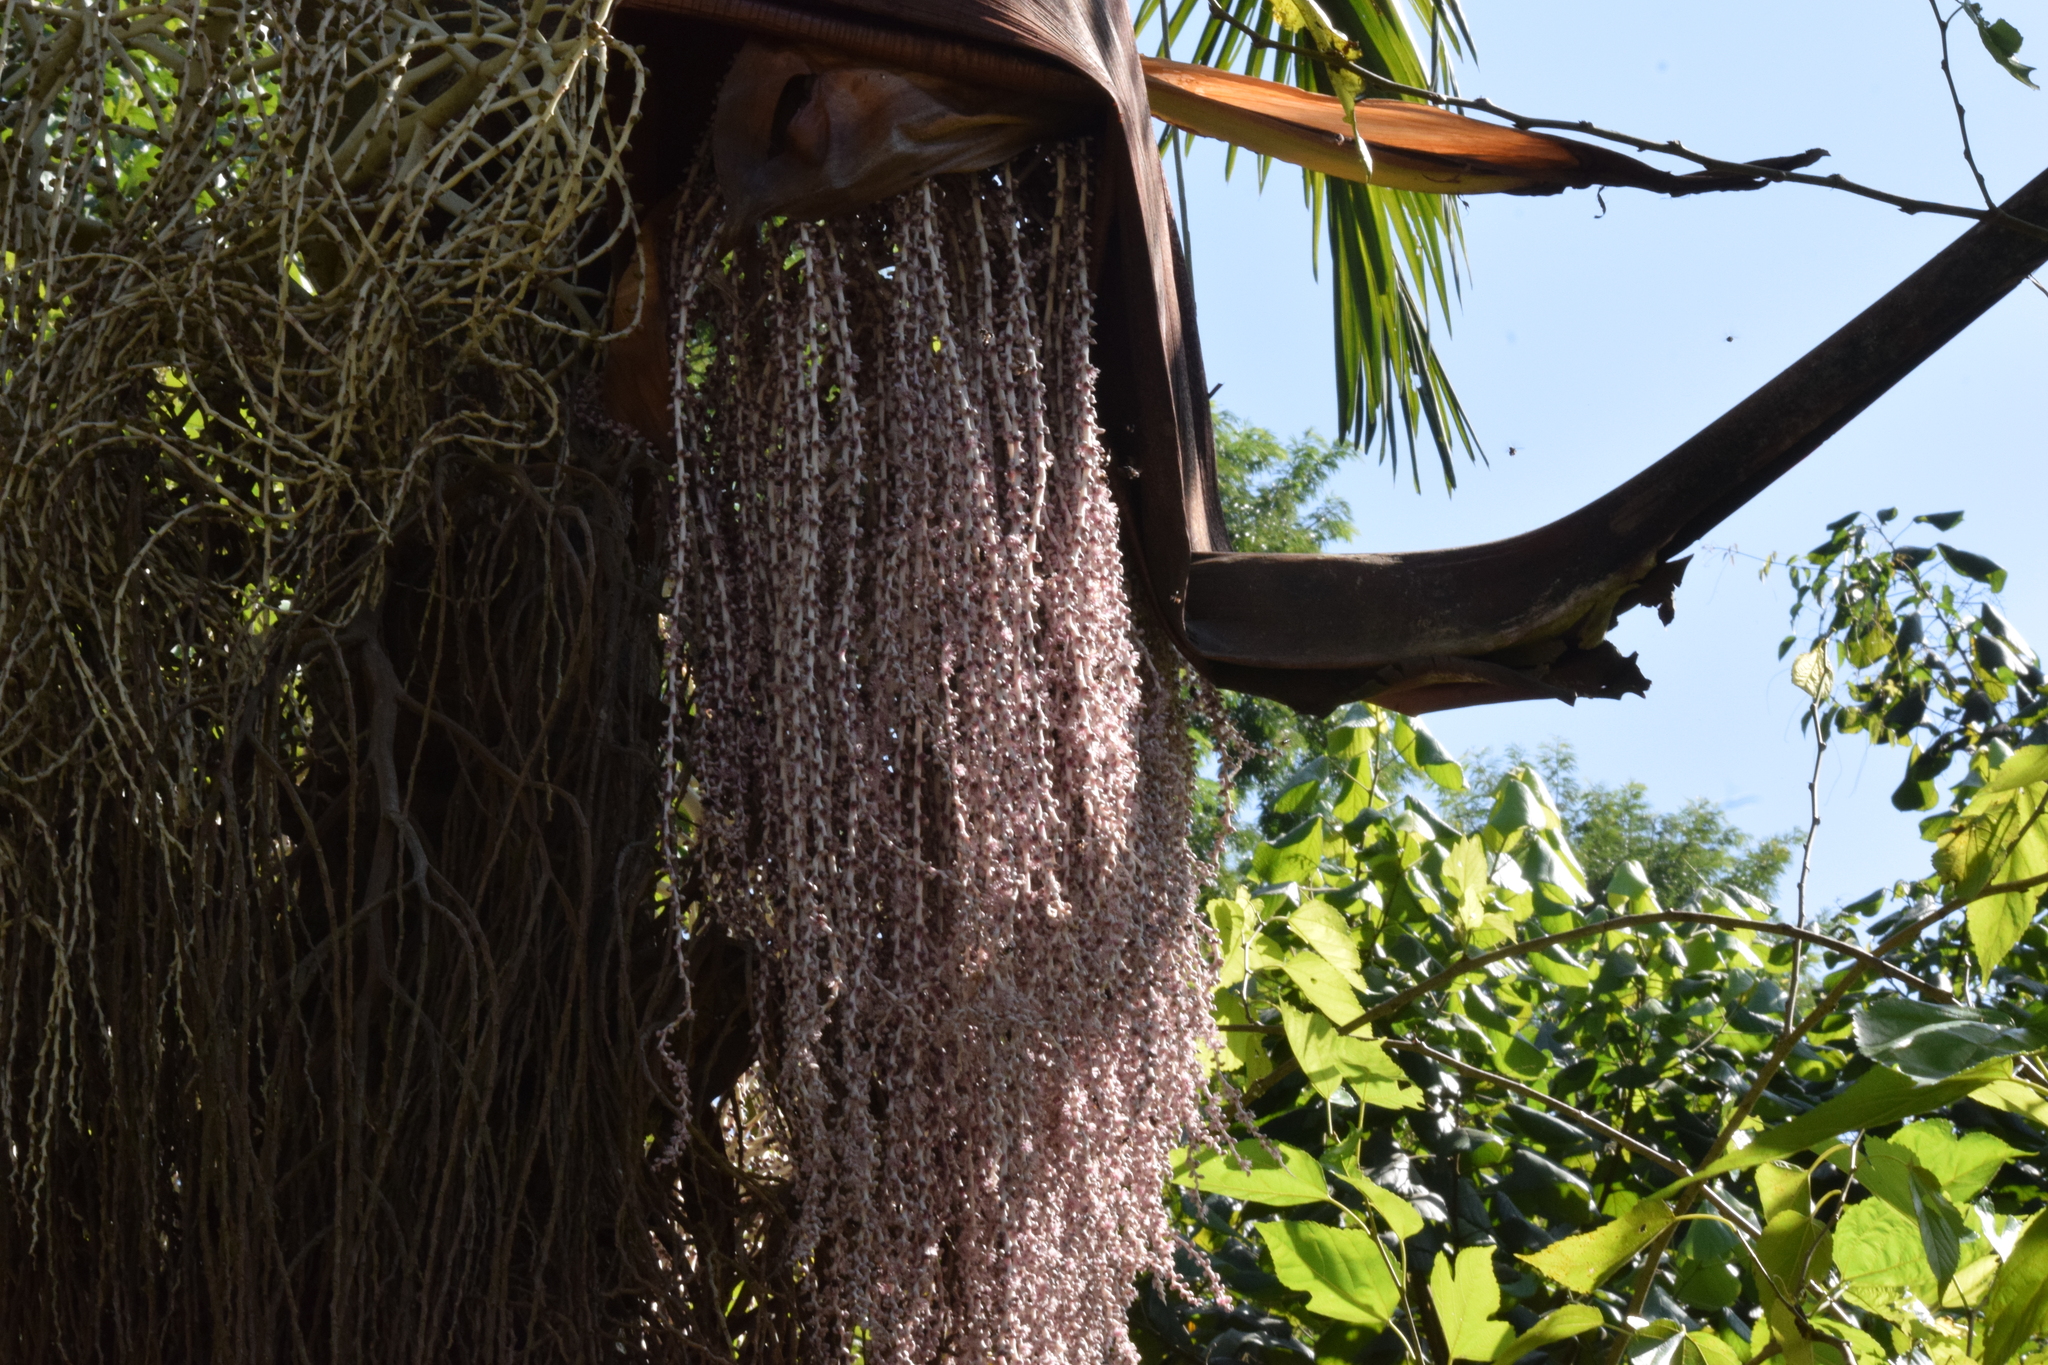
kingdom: Plantae
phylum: Tracheophyta
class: Liliopsida
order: Arecales
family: Arecaceae
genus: Archontophoenix
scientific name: Archontophoenix cunninghamiana
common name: Piccabeen bangalow palm
